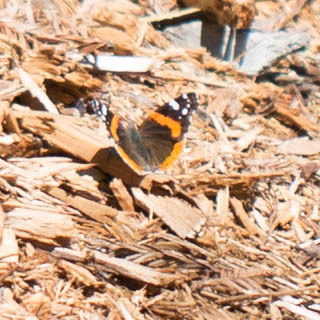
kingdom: Animalia
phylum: Arthropoda
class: Insecta
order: Lepidoptera
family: Nymphalidae
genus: Vanessa
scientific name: Vanessa atalanta
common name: Red admiral
